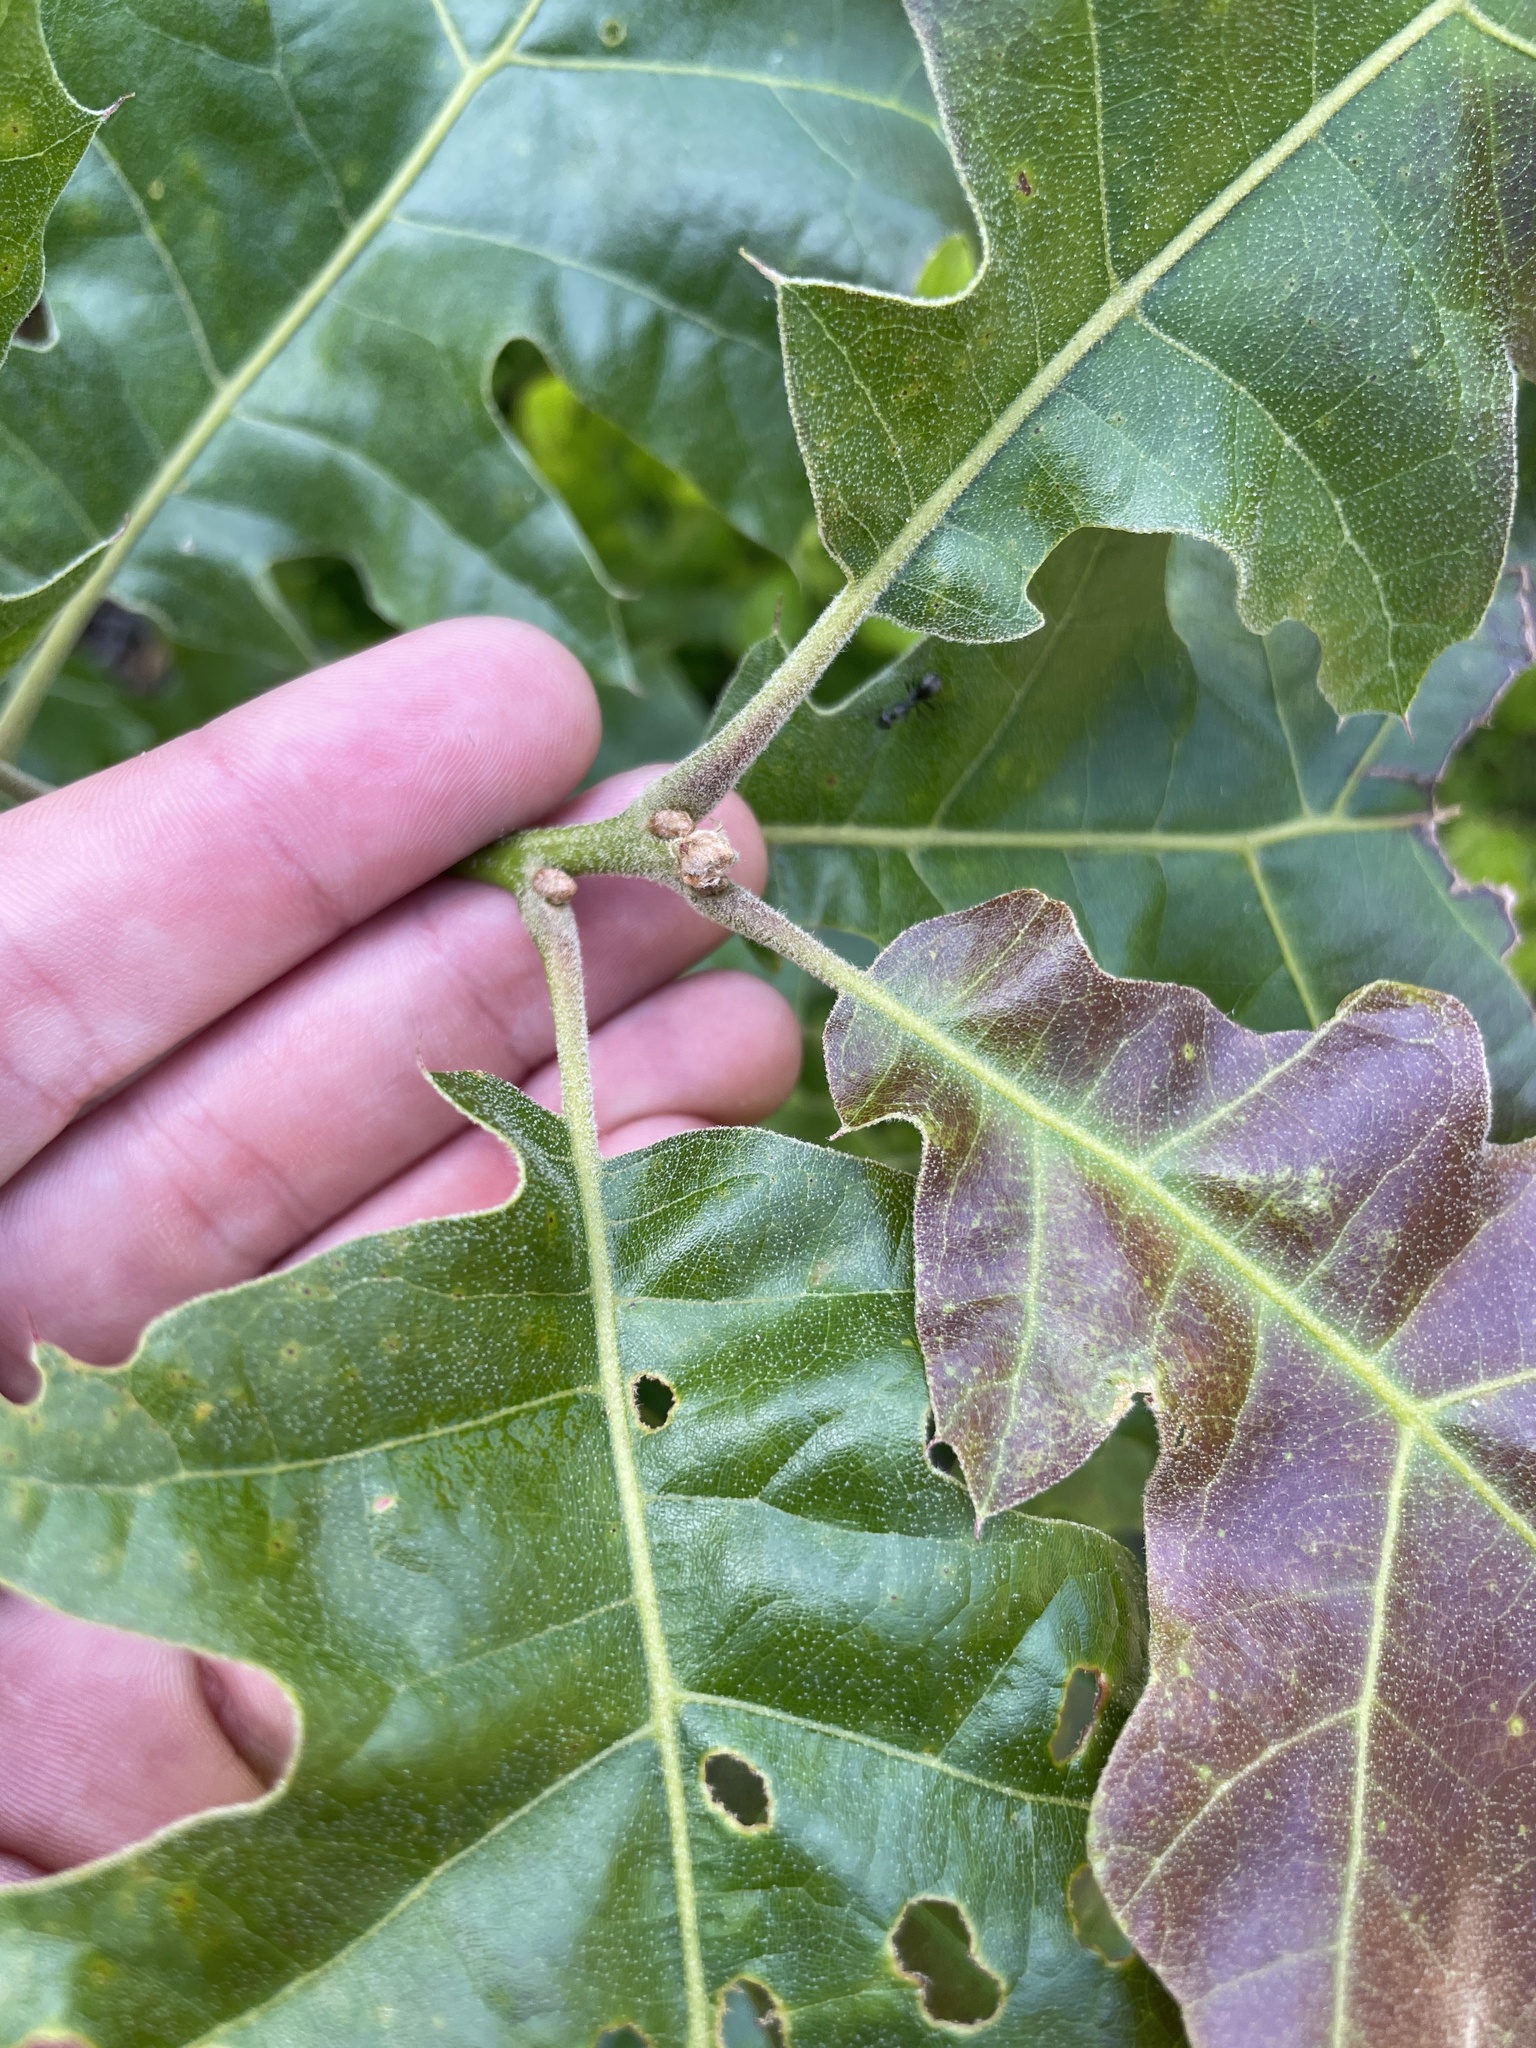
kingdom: Plantae
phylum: Tracheophyta
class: Magnoliopsida
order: Fagales
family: Fagaceae
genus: Quercus
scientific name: Quercus velutina
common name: Black oak
